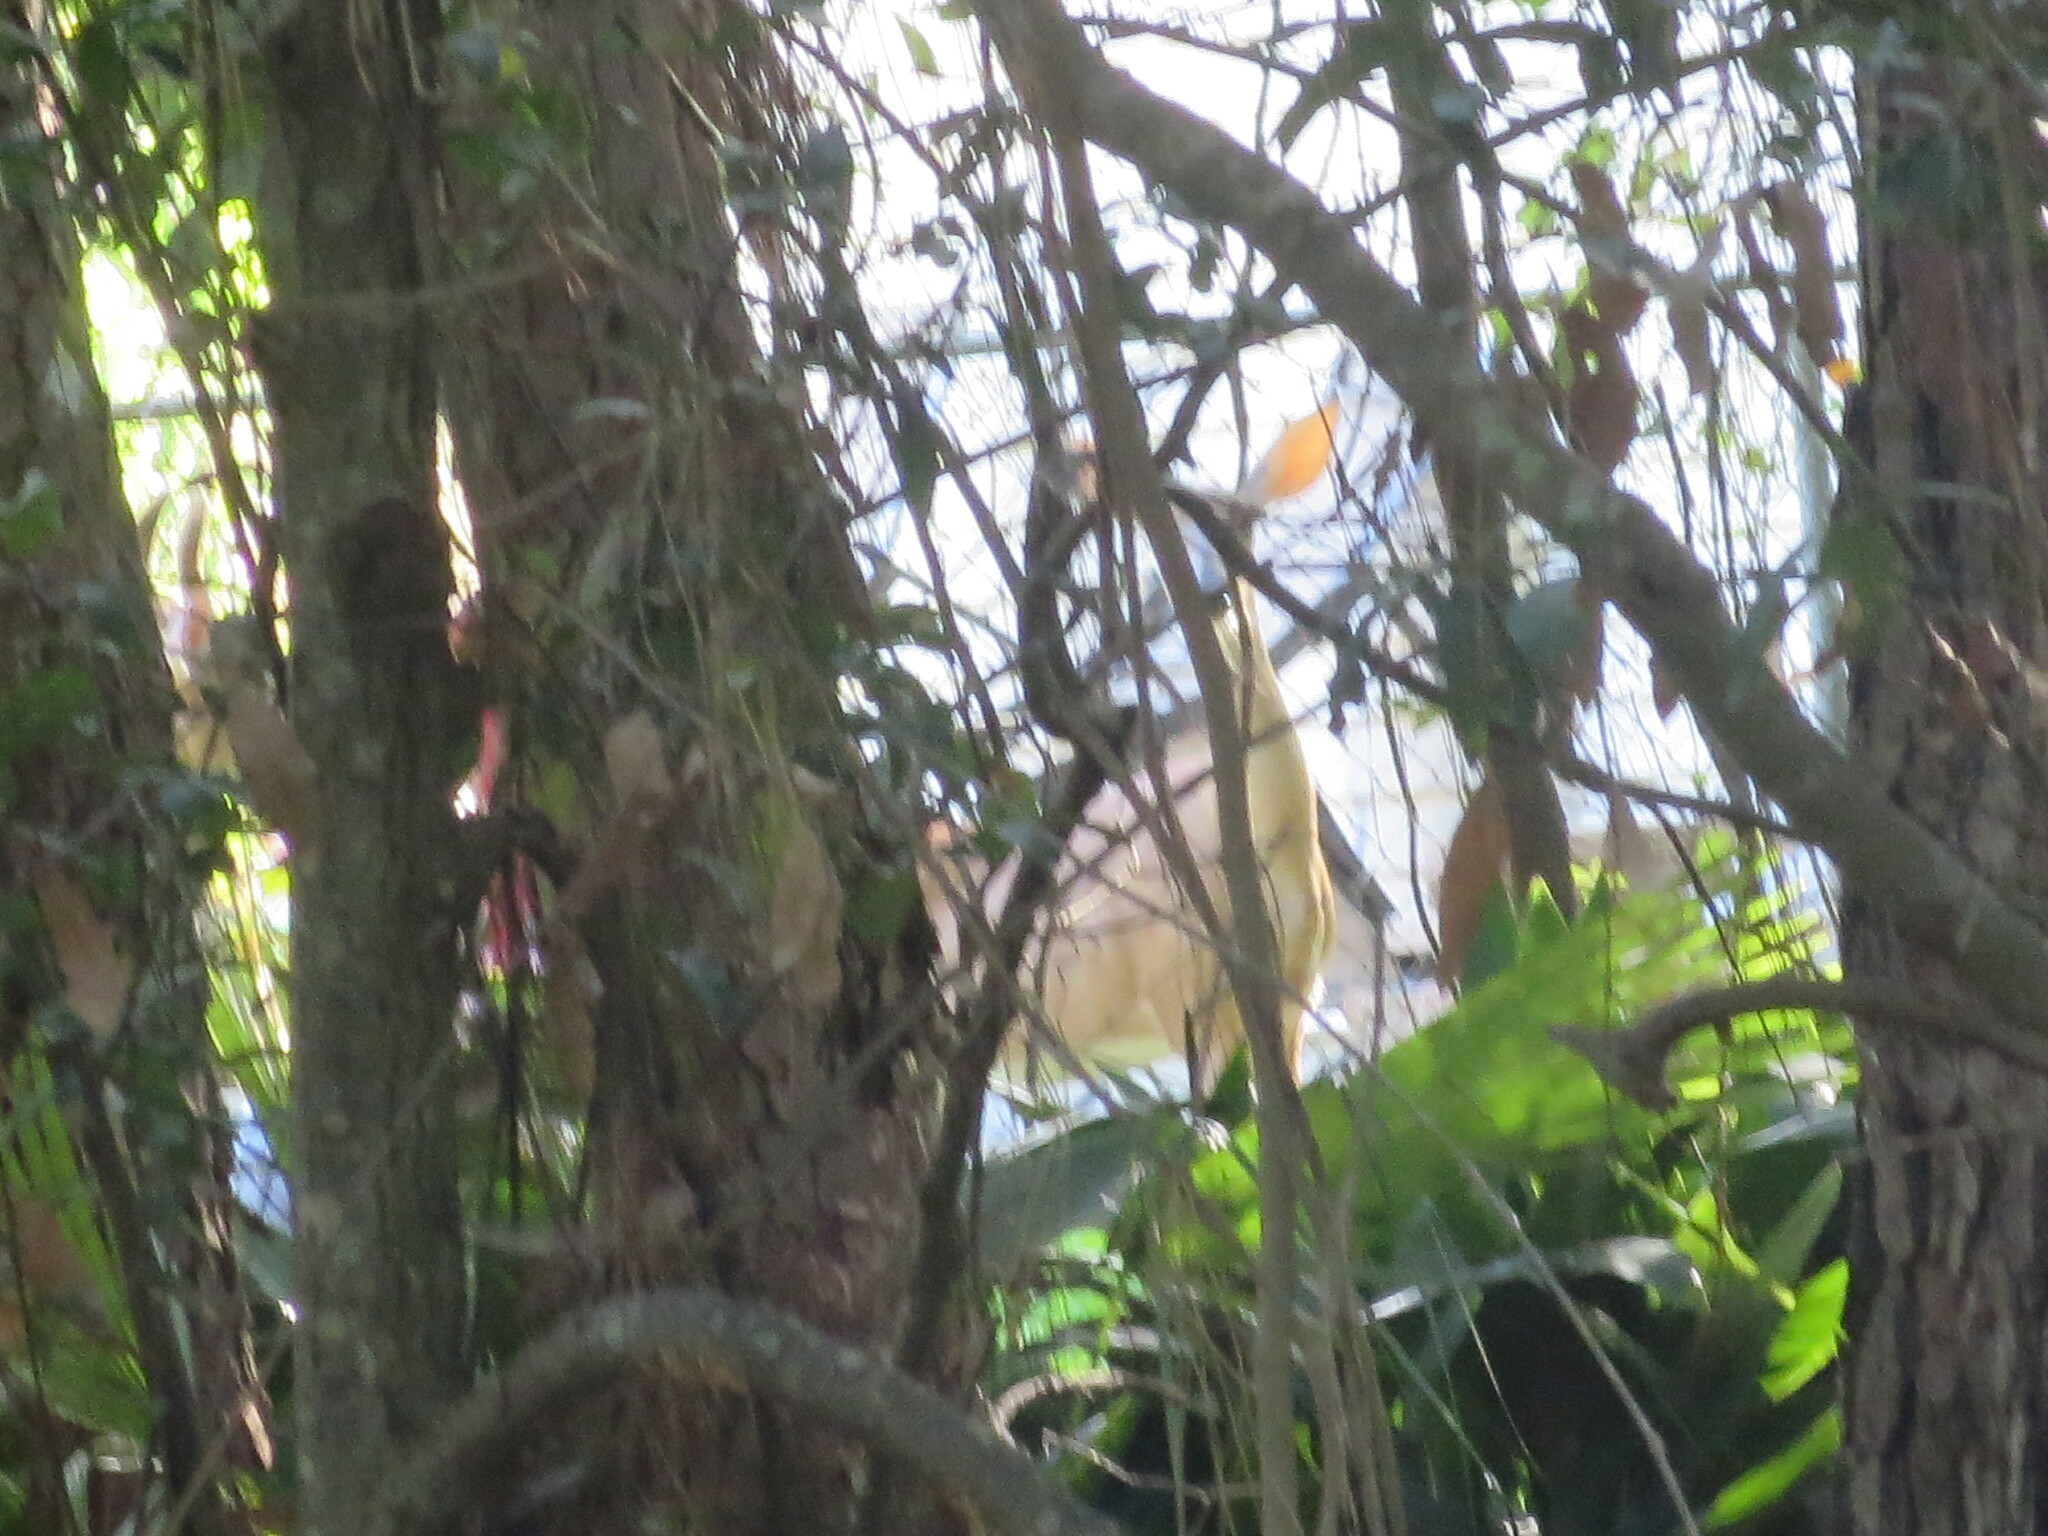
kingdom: Animalia
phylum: Chordata
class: Mammalia
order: Artiodactyla
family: Cervidae
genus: Odocoileus
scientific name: Odocoileus virginianus
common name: White-tailed deer
